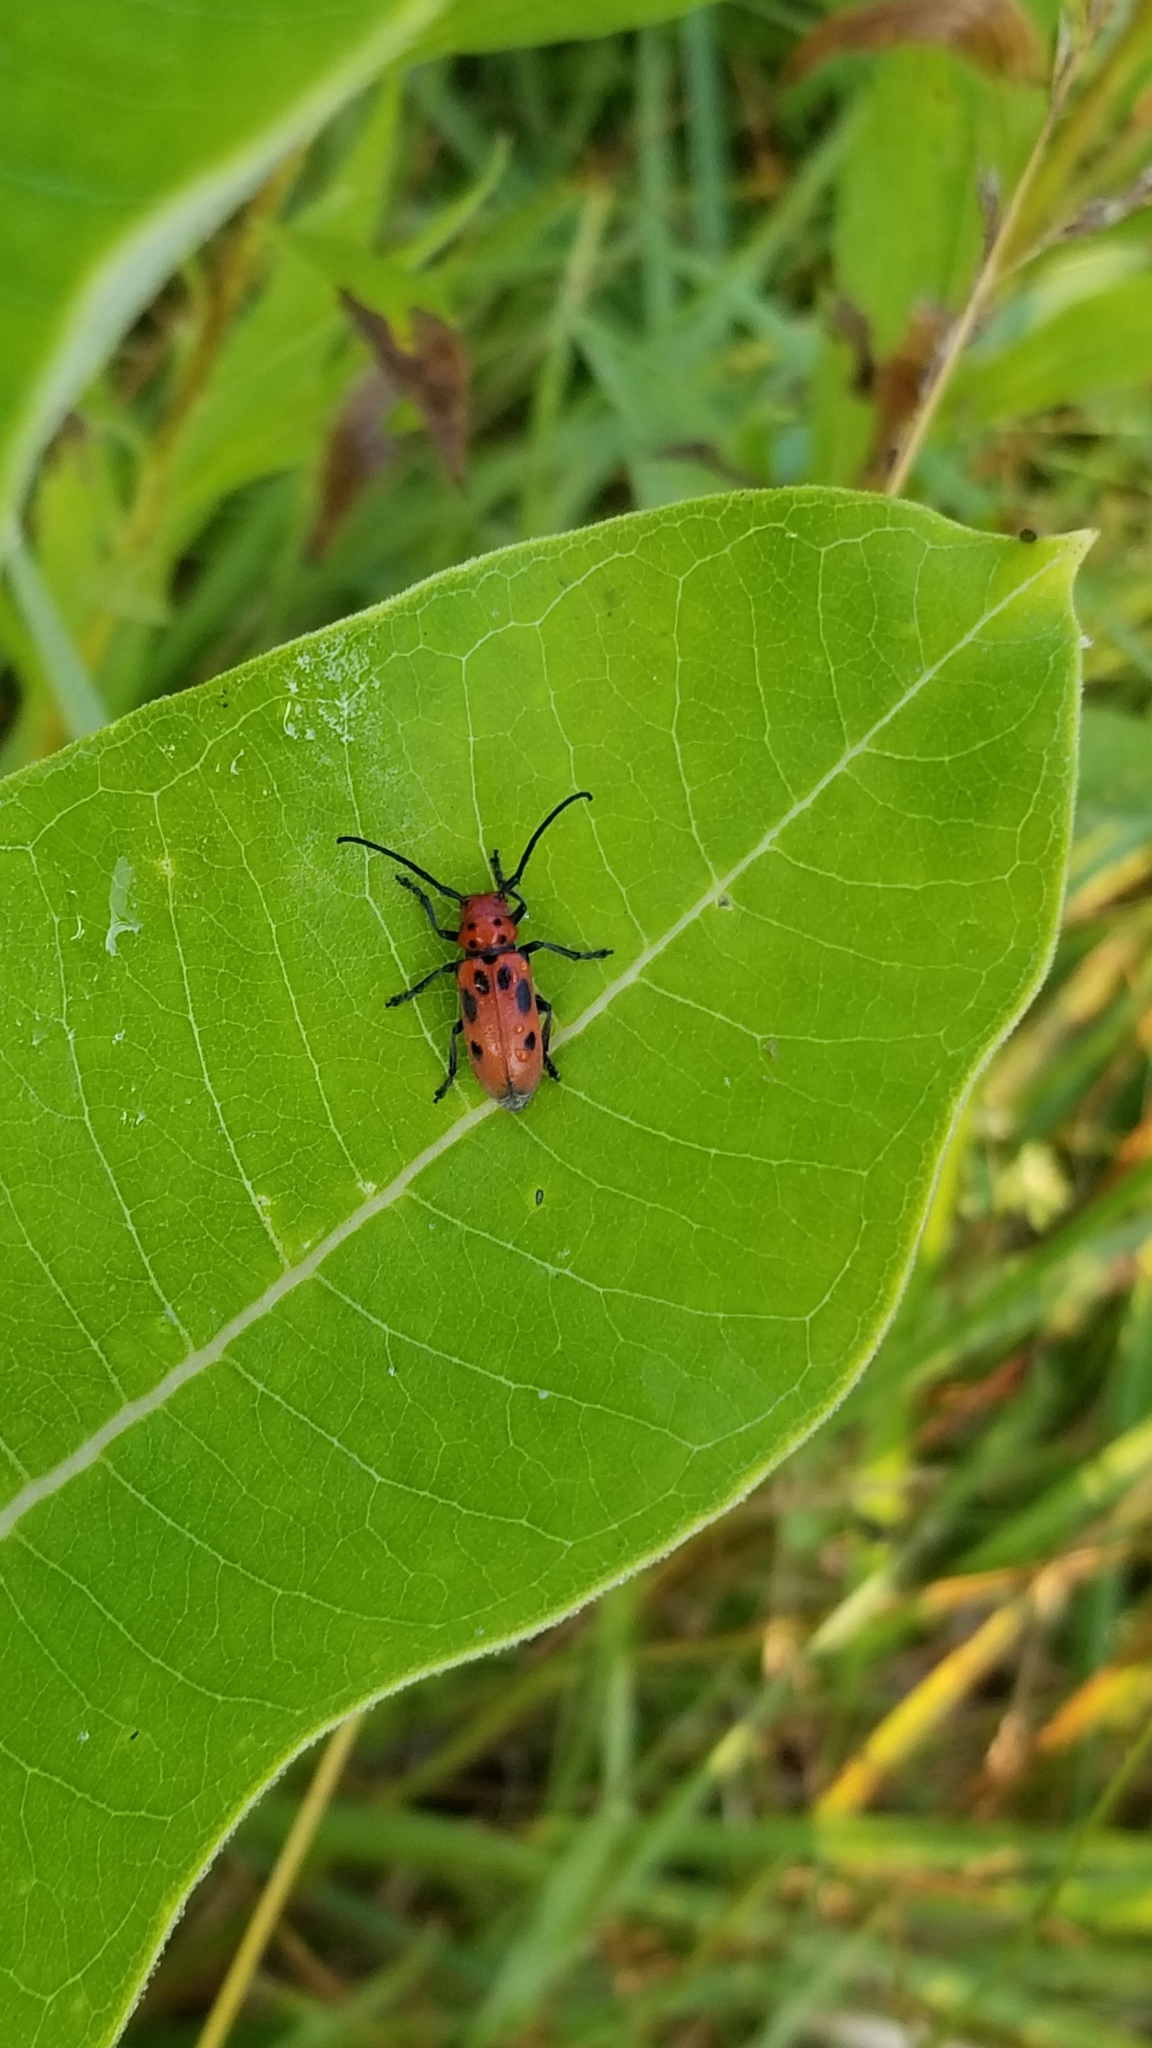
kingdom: Animalia
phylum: Arthropoda
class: Insecta
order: Coleoptera
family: Cerambycidae
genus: Tetraopes
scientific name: Tetraopes tetrophthalmus
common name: Red milkweed beetle
